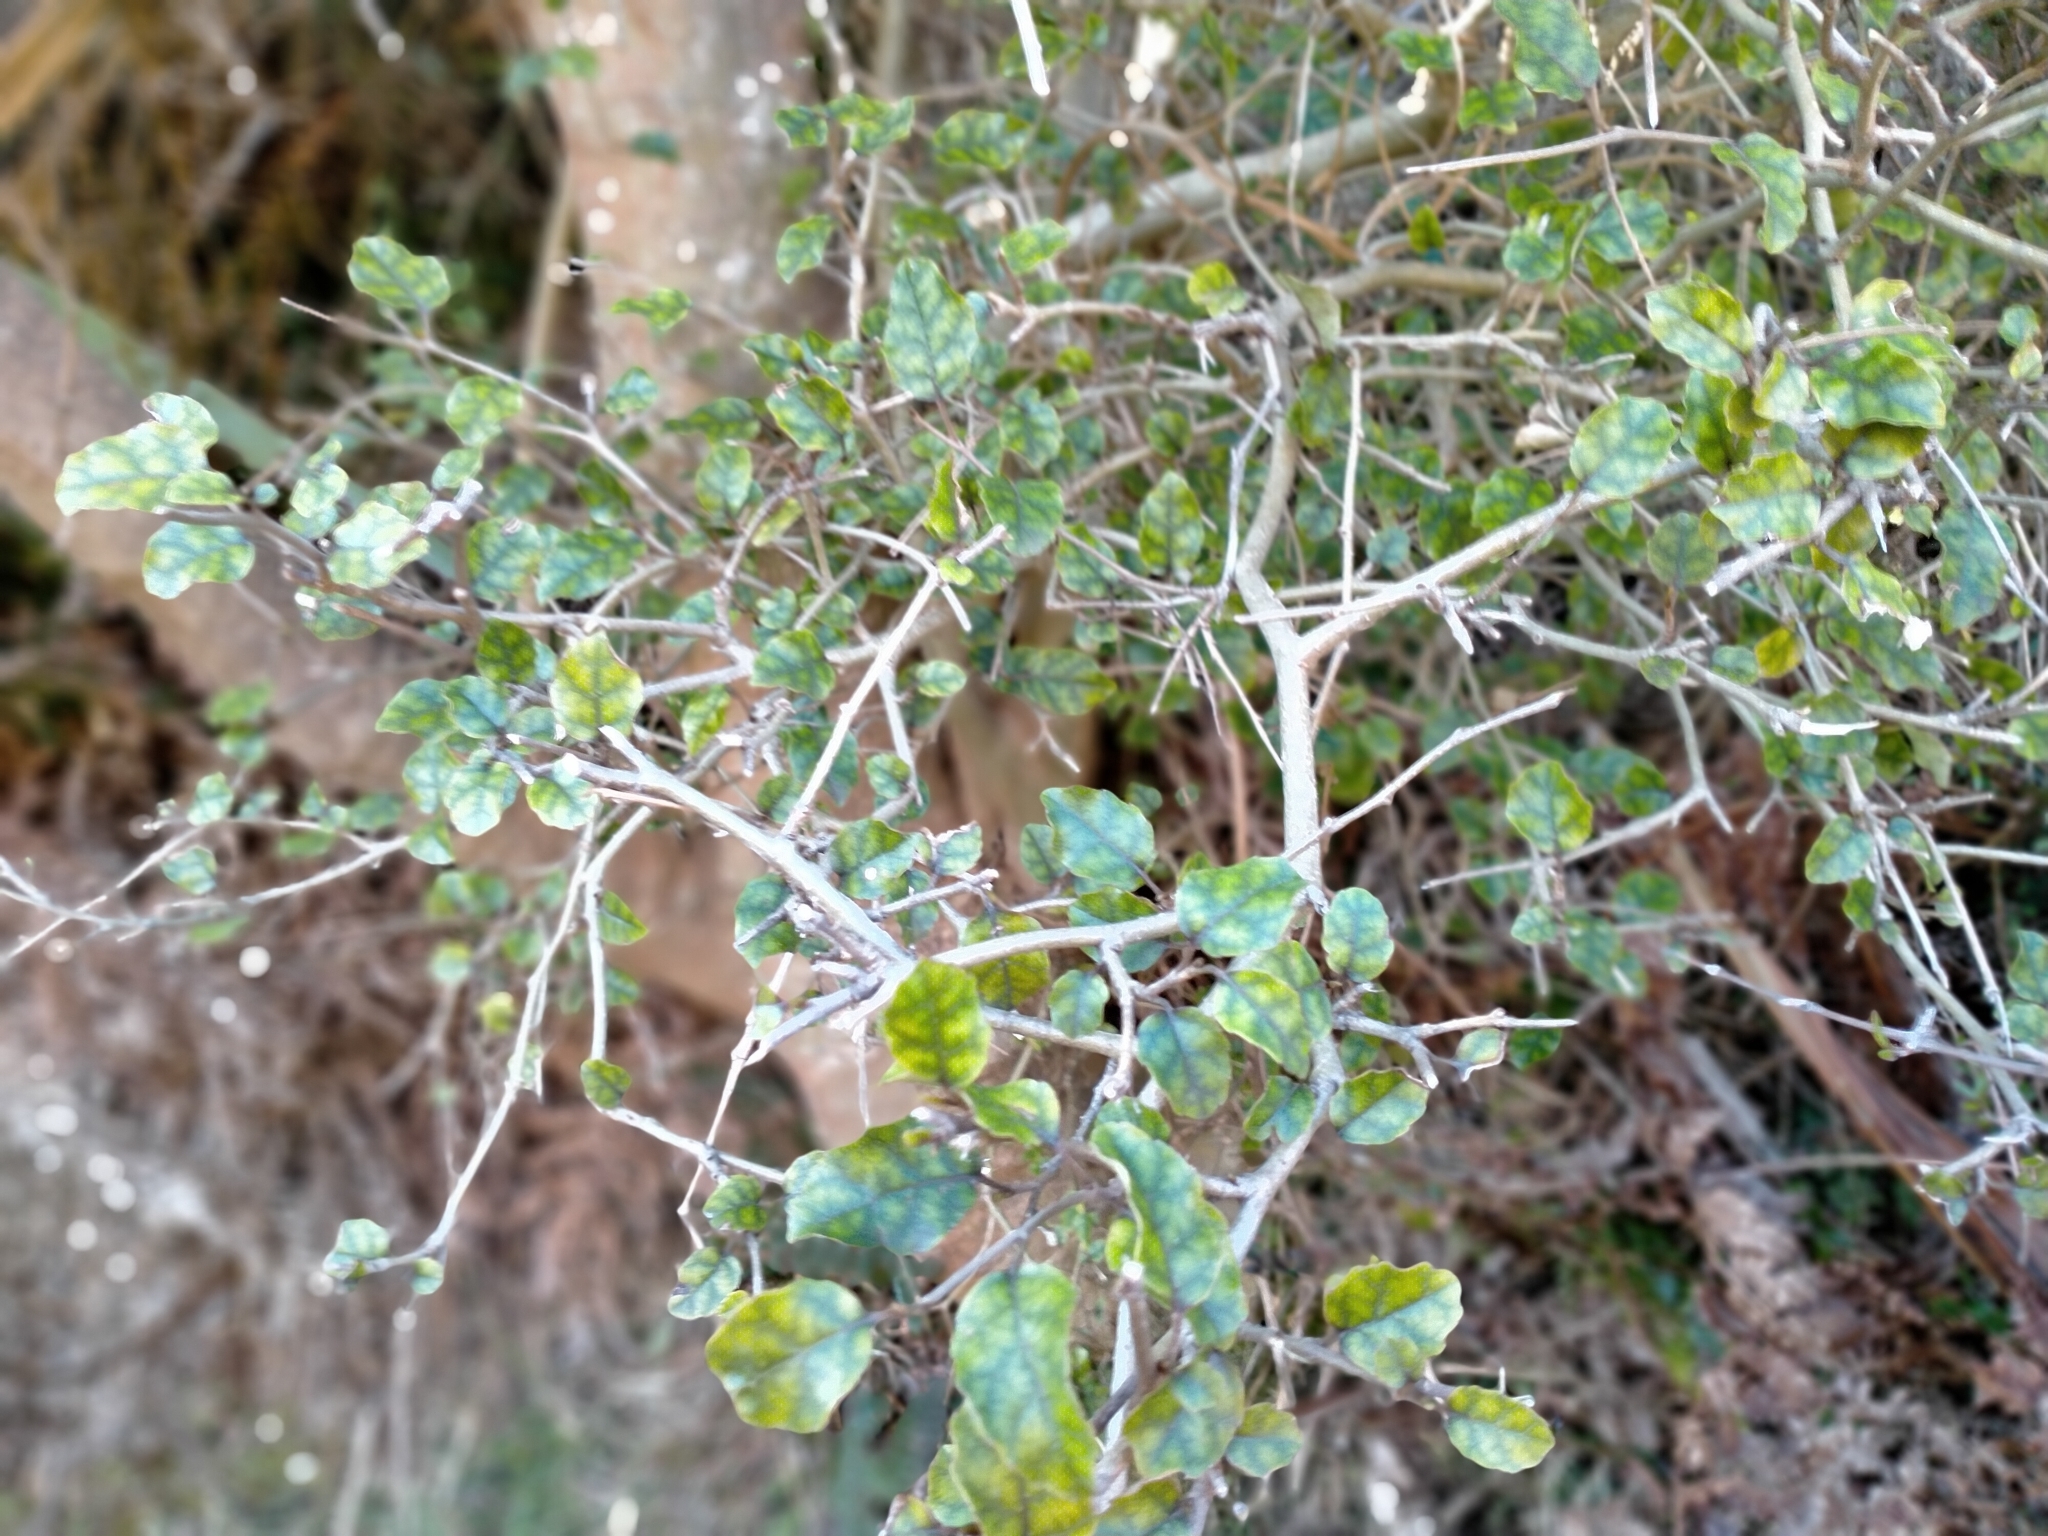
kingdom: Plantae
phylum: Tracheophyta
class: Magnoliopsida
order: Asterales
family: Rousseaceae
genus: Carpodetus
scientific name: Carpodetus serratus
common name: White mapau
